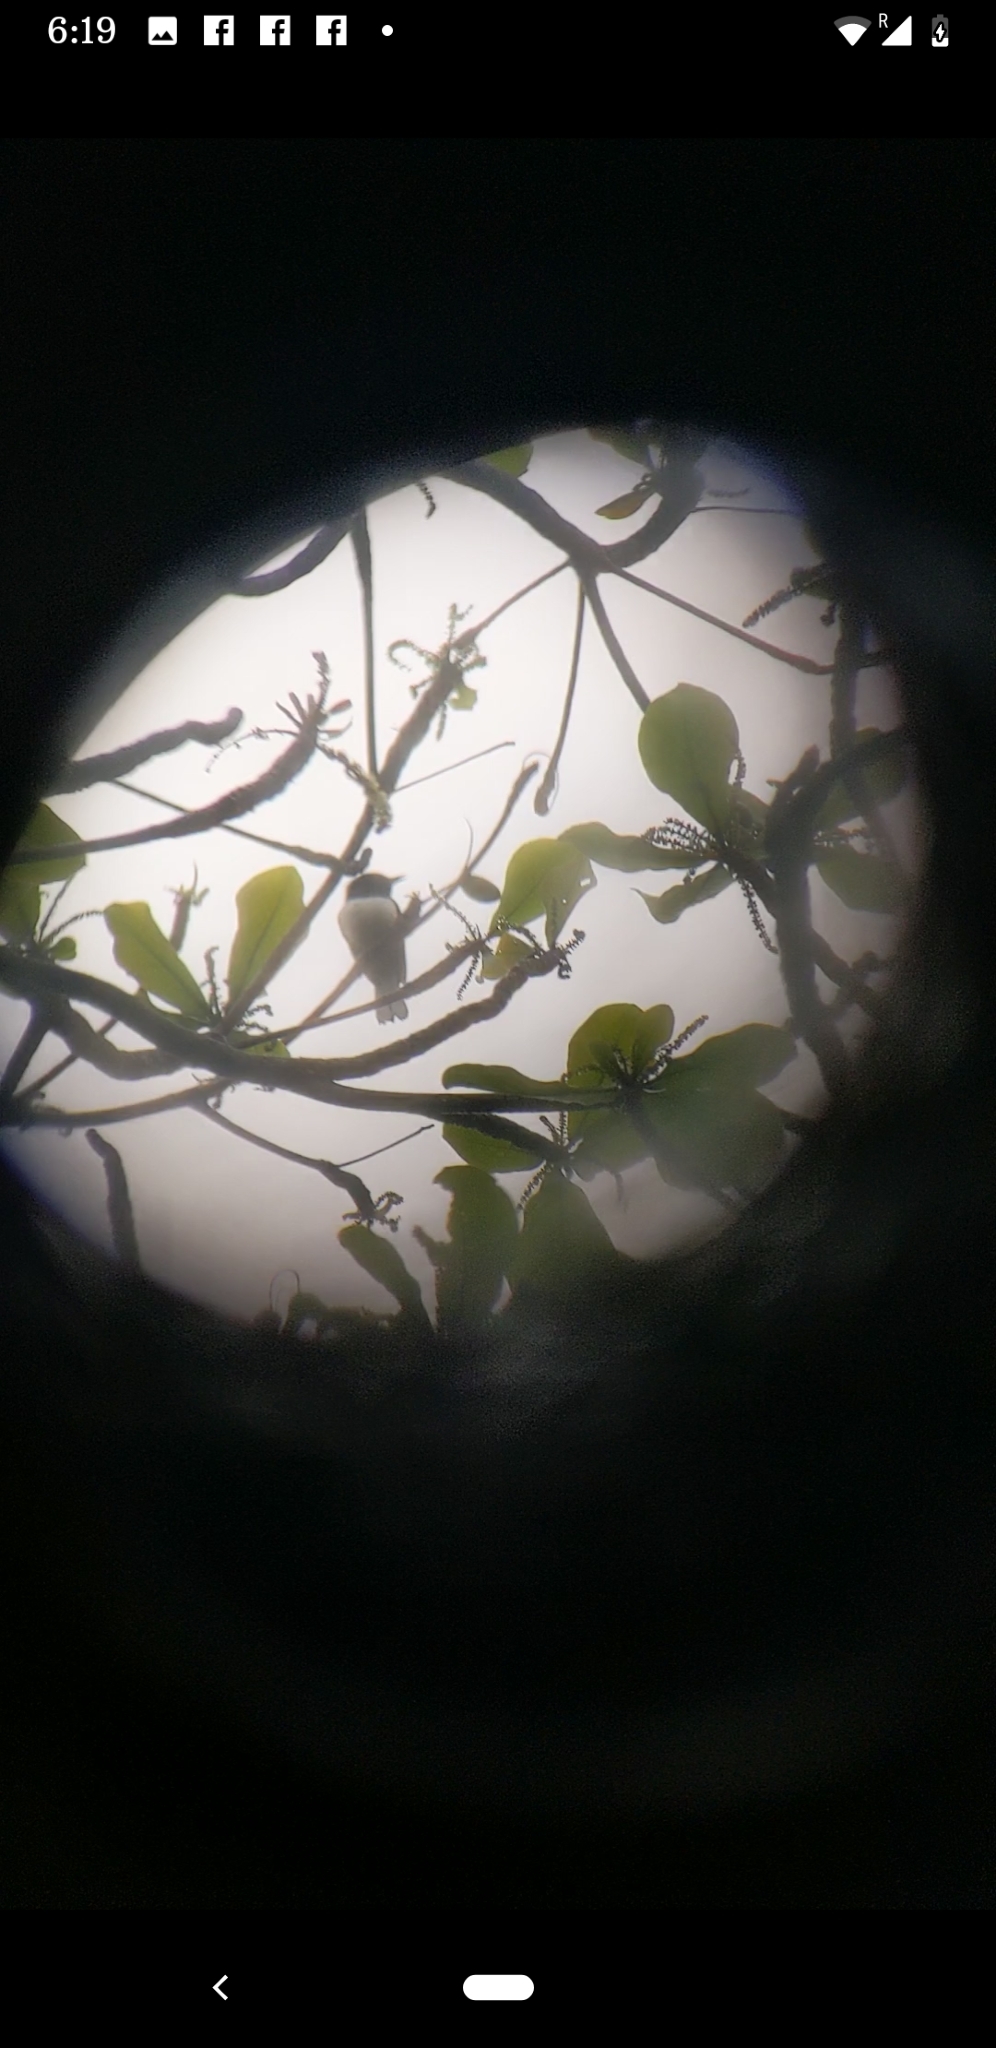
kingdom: Animalia
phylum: Chordata
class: Aves
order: Passeriformes
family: Muscicapidae
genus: Copsychus
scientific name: Copsychus saularis
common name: Oriental magpie-robin
